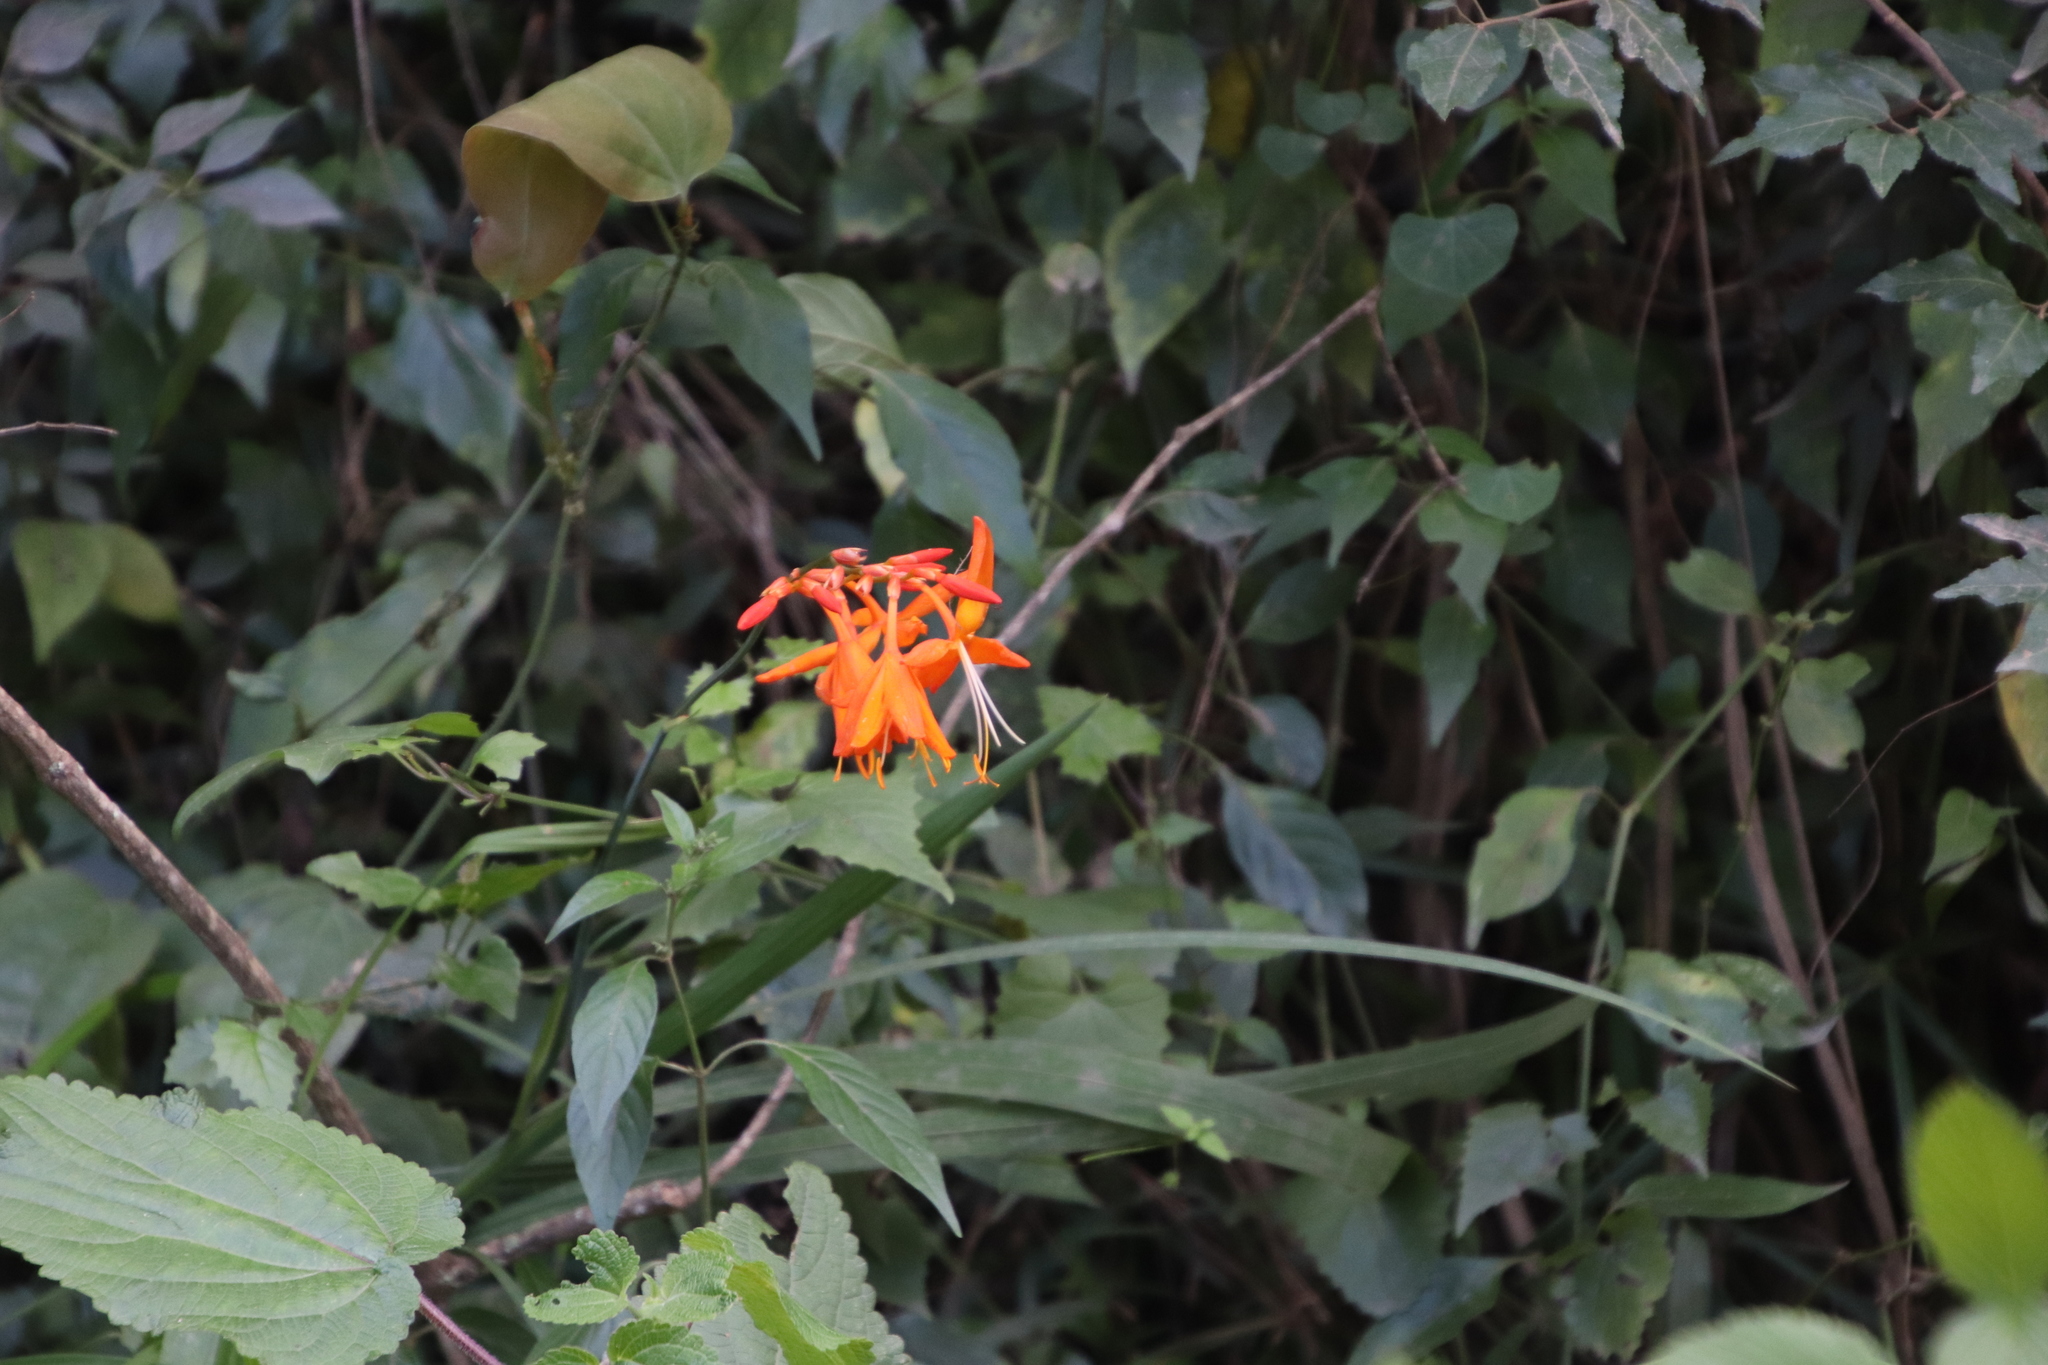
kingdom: Plantae
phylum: Tracheophyta
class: Liliopsida
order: Asparagales
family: Iridaceae
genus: Crocosmia
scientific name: Crocosmia aurea
